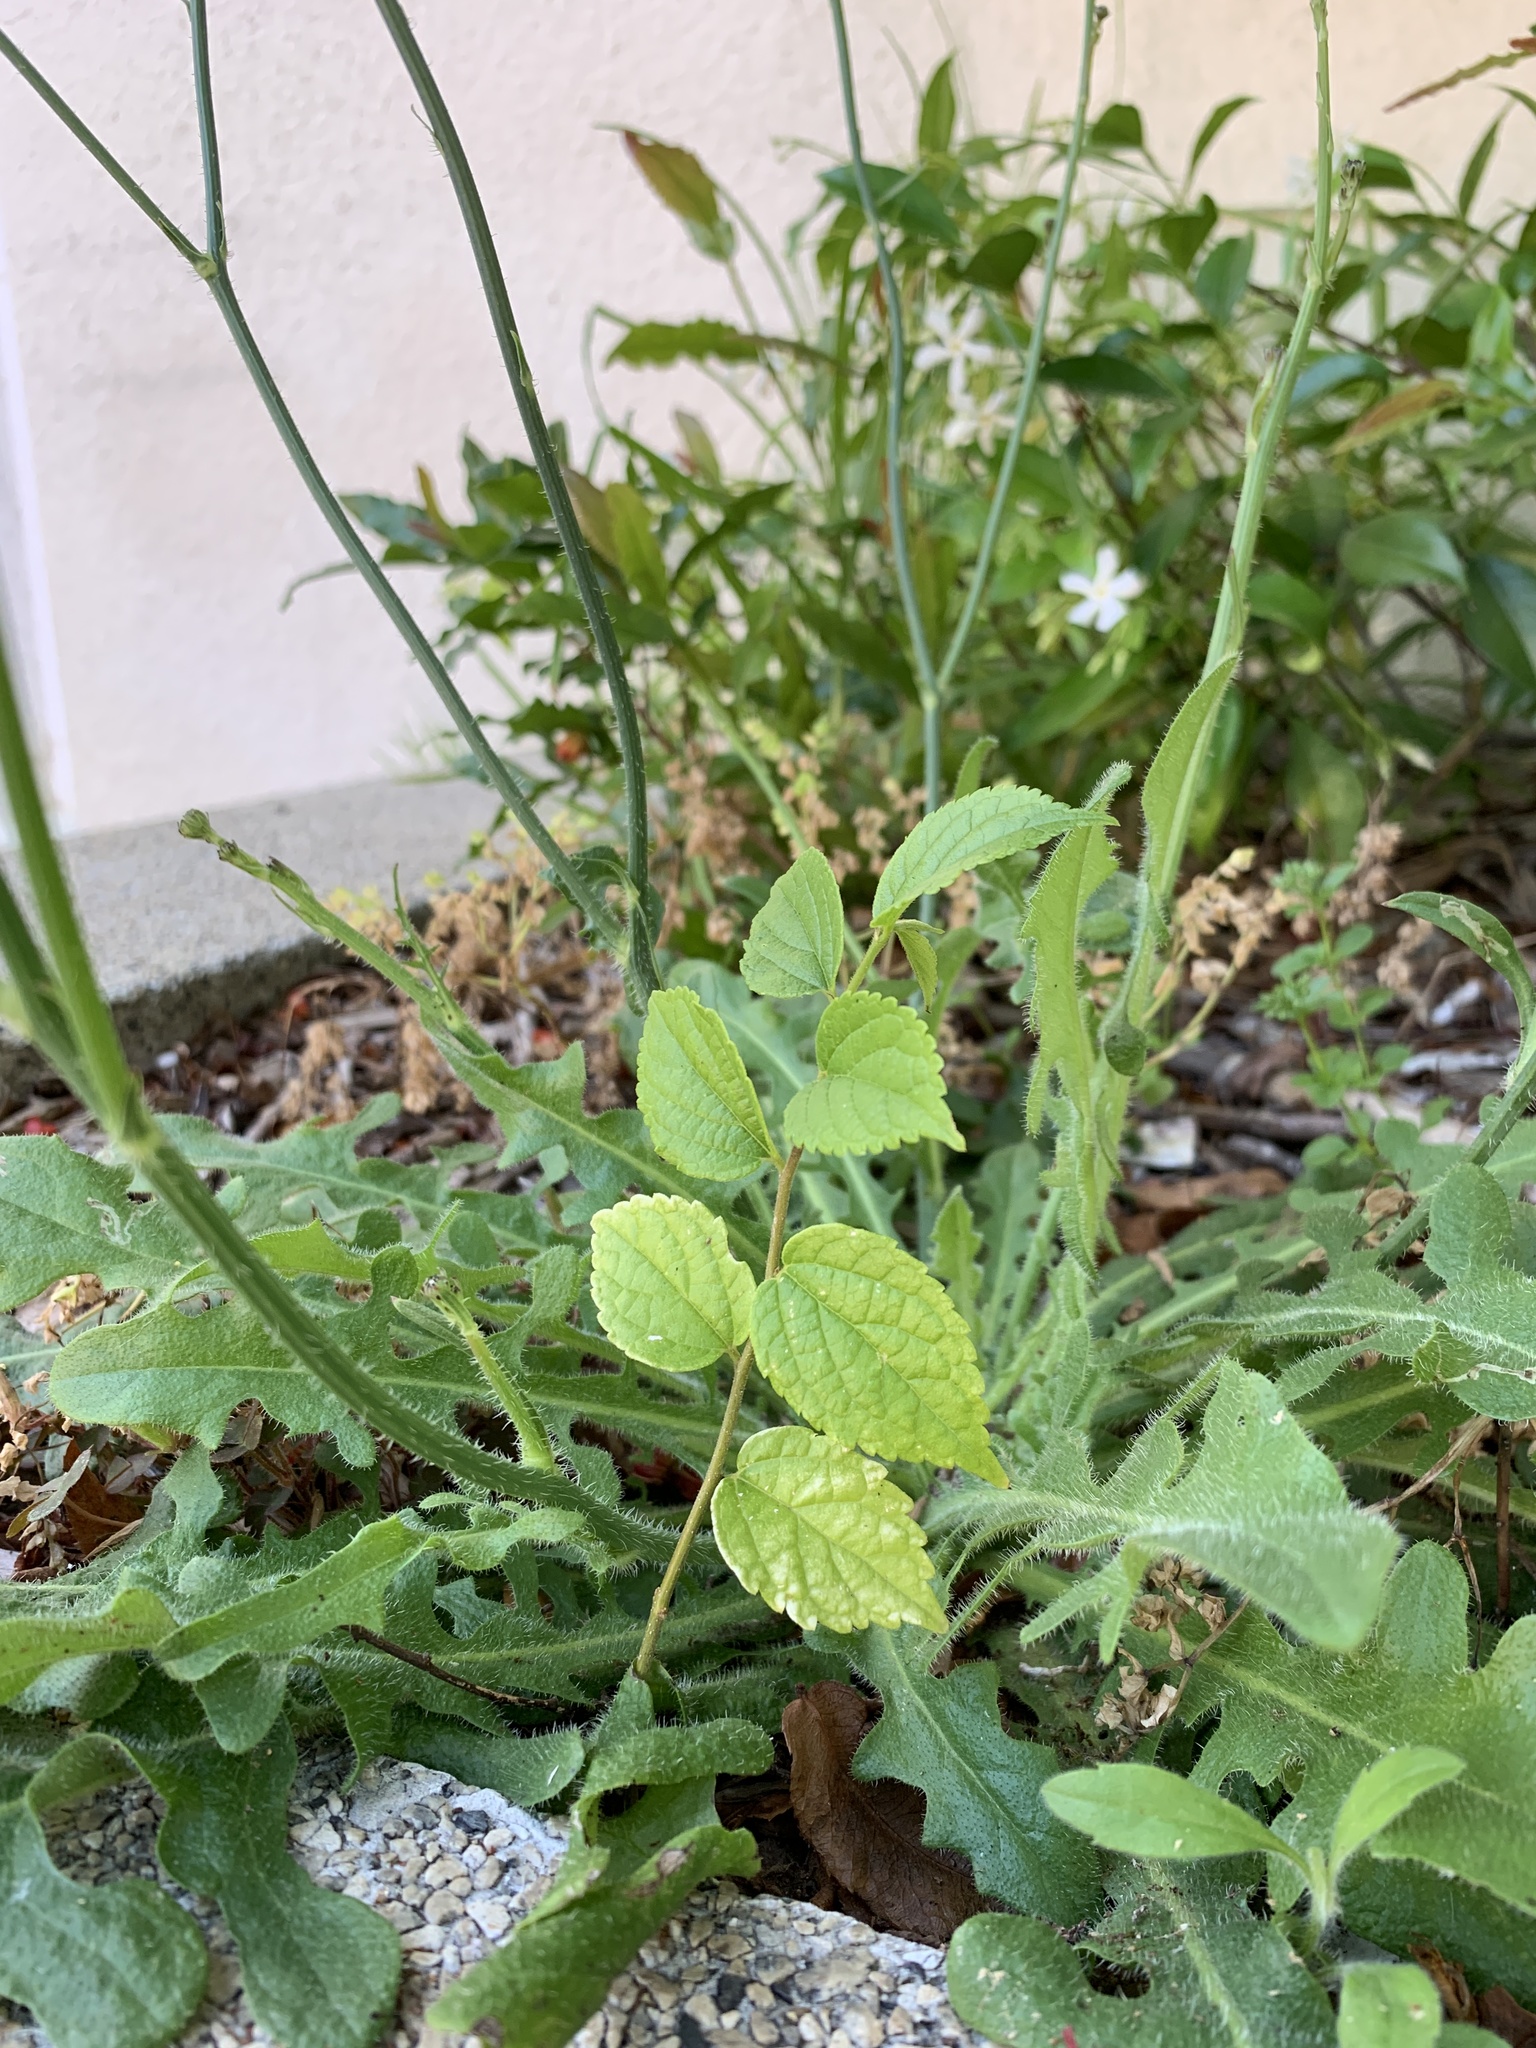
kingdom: Plantae
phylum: Tracheophyta
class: Magnoliopsida
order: Rosales
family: Cannabaceae
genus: Celtis
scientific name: Celtis sinensis
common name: Chinese hackberry
